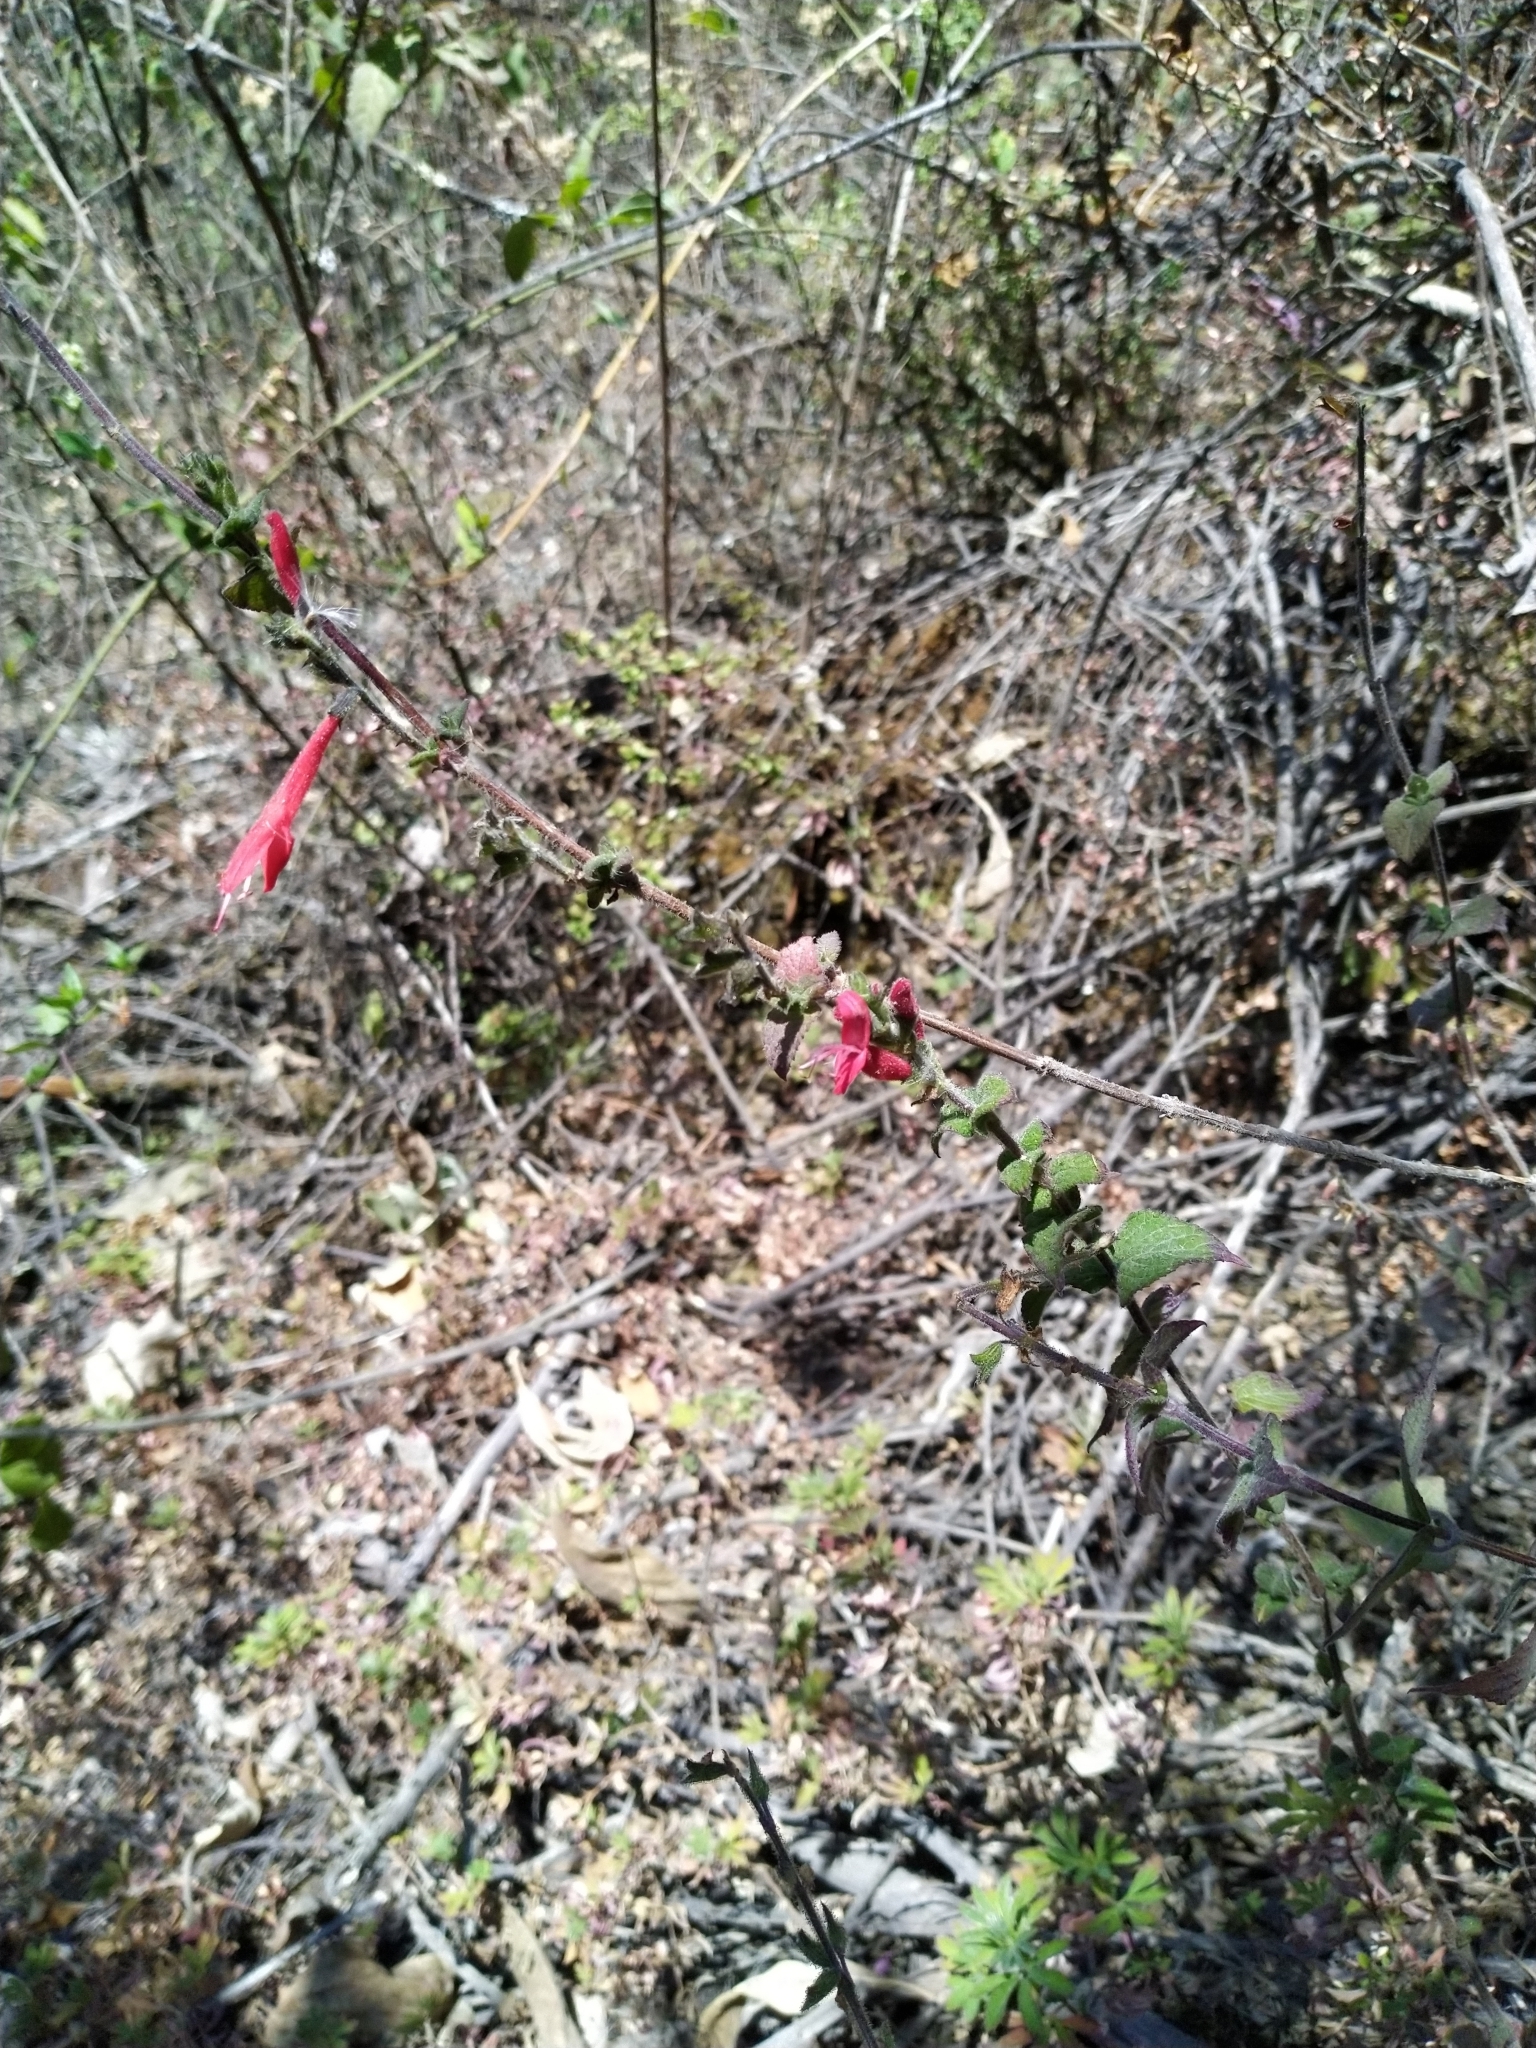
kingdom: Plantae
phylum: Tracheophyta
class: Magnoliopsida
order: Lamiales
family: Lamiaceae
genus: Salvia
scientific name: Salvia elegans
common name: Pineapple sage
